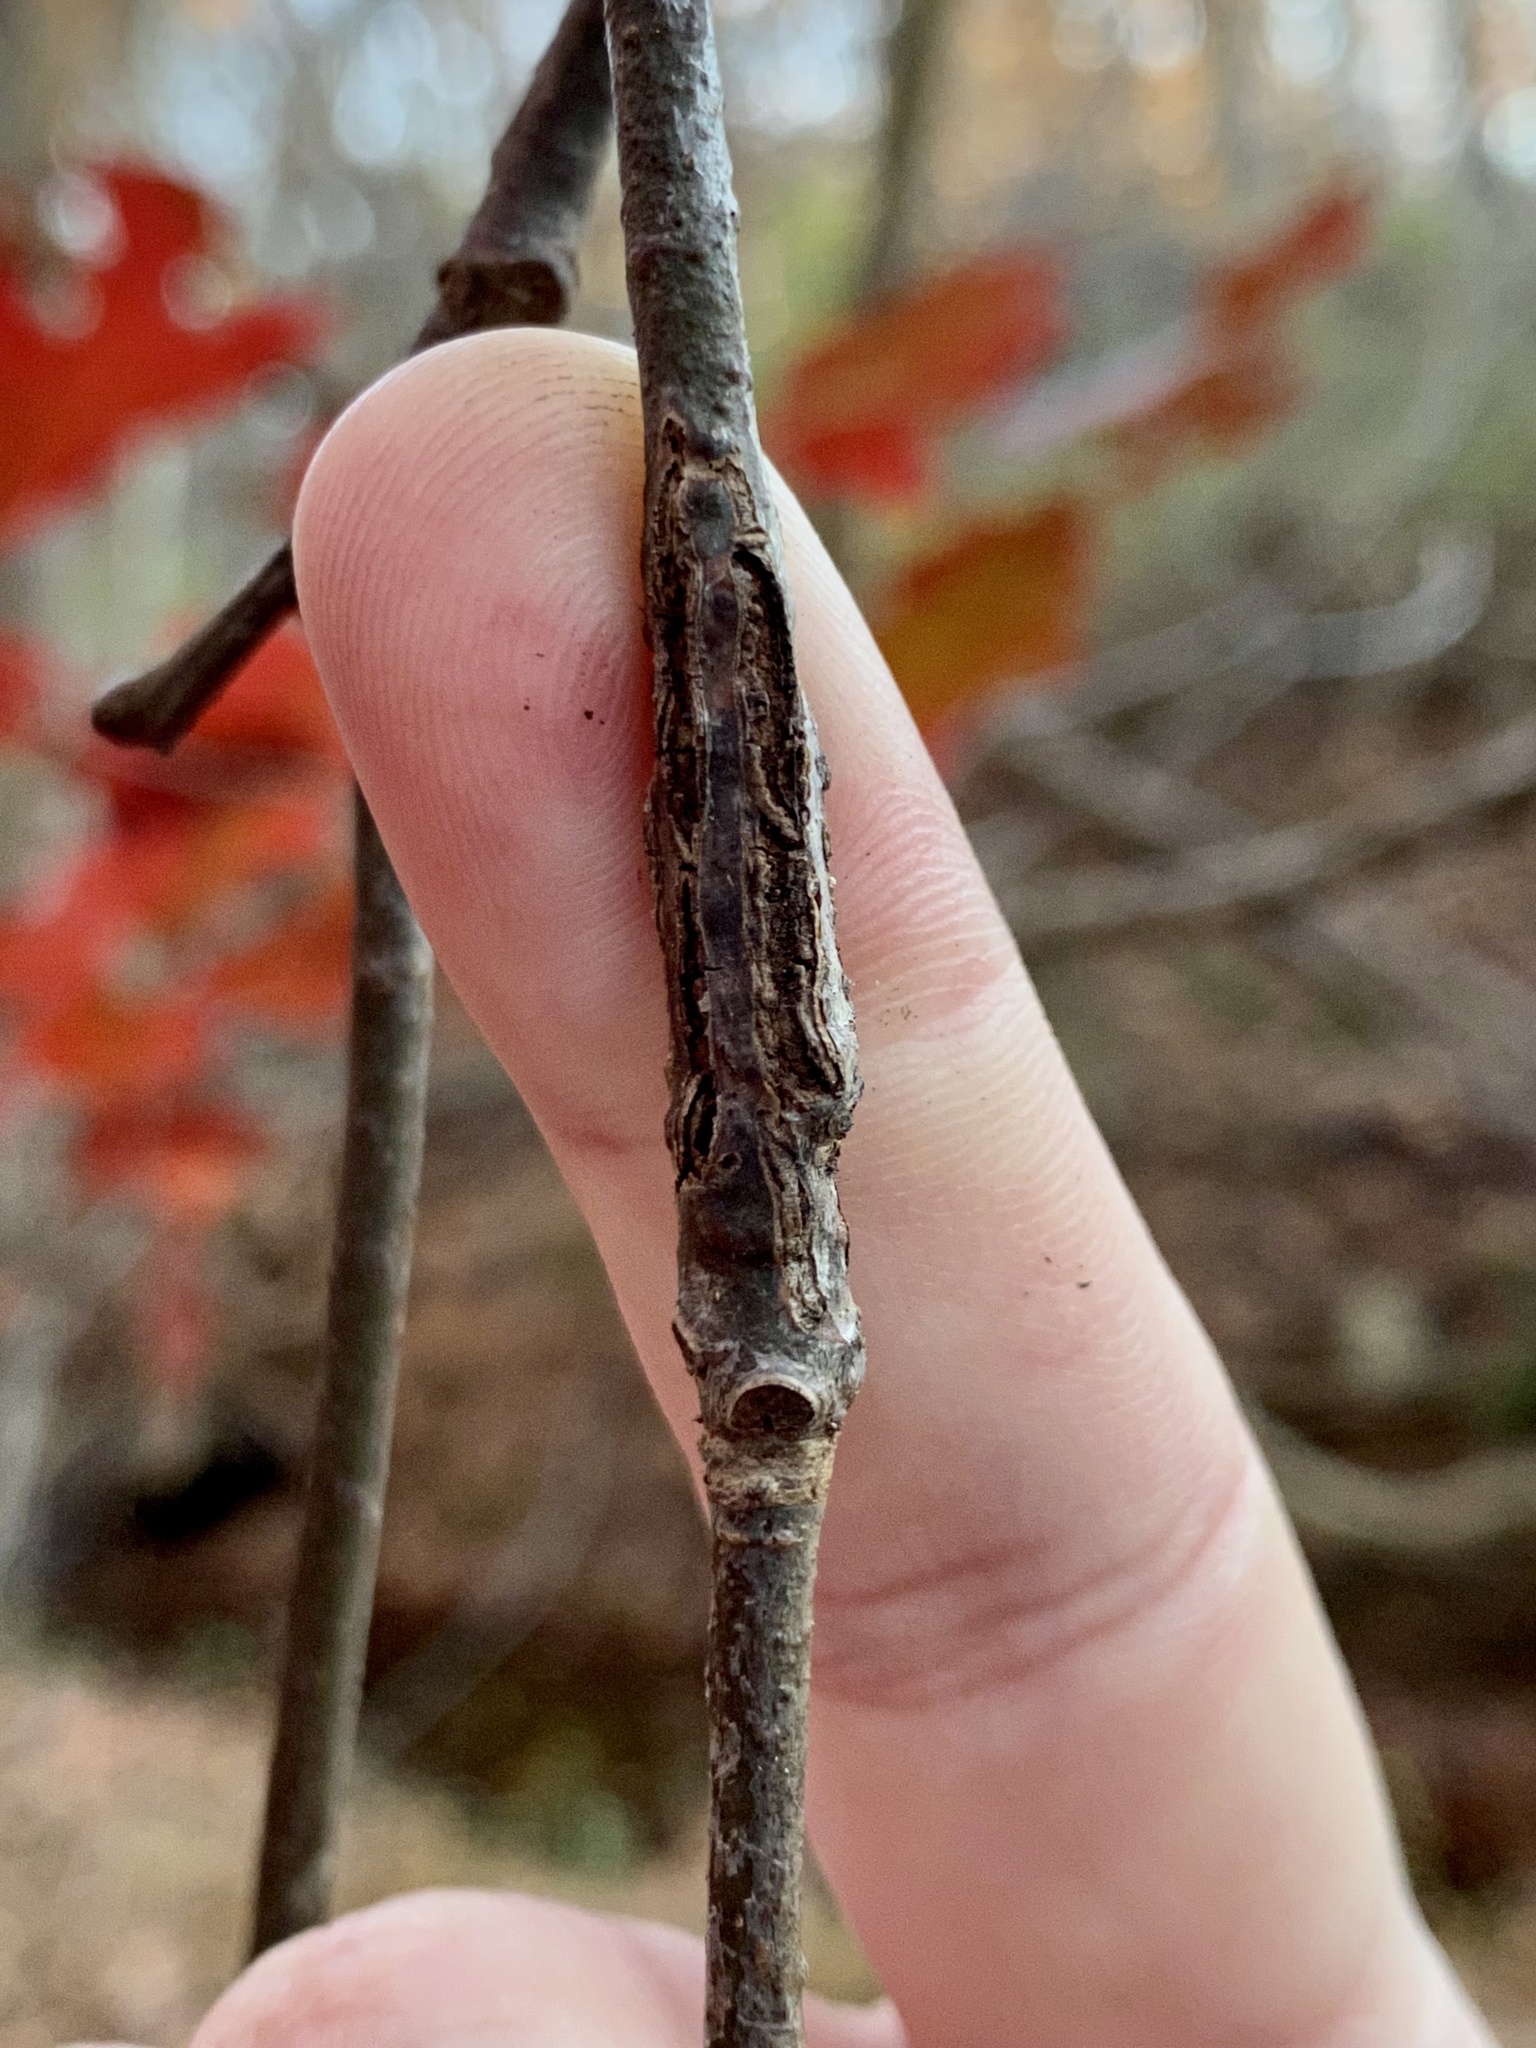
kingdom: Animalia
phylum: Arthropoda
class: Insecta
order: Hymenoptera
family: Cynipidae
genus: Kokkocynips
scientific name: Kokkocynips imbricariae
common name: Banded bullet gall wasp
